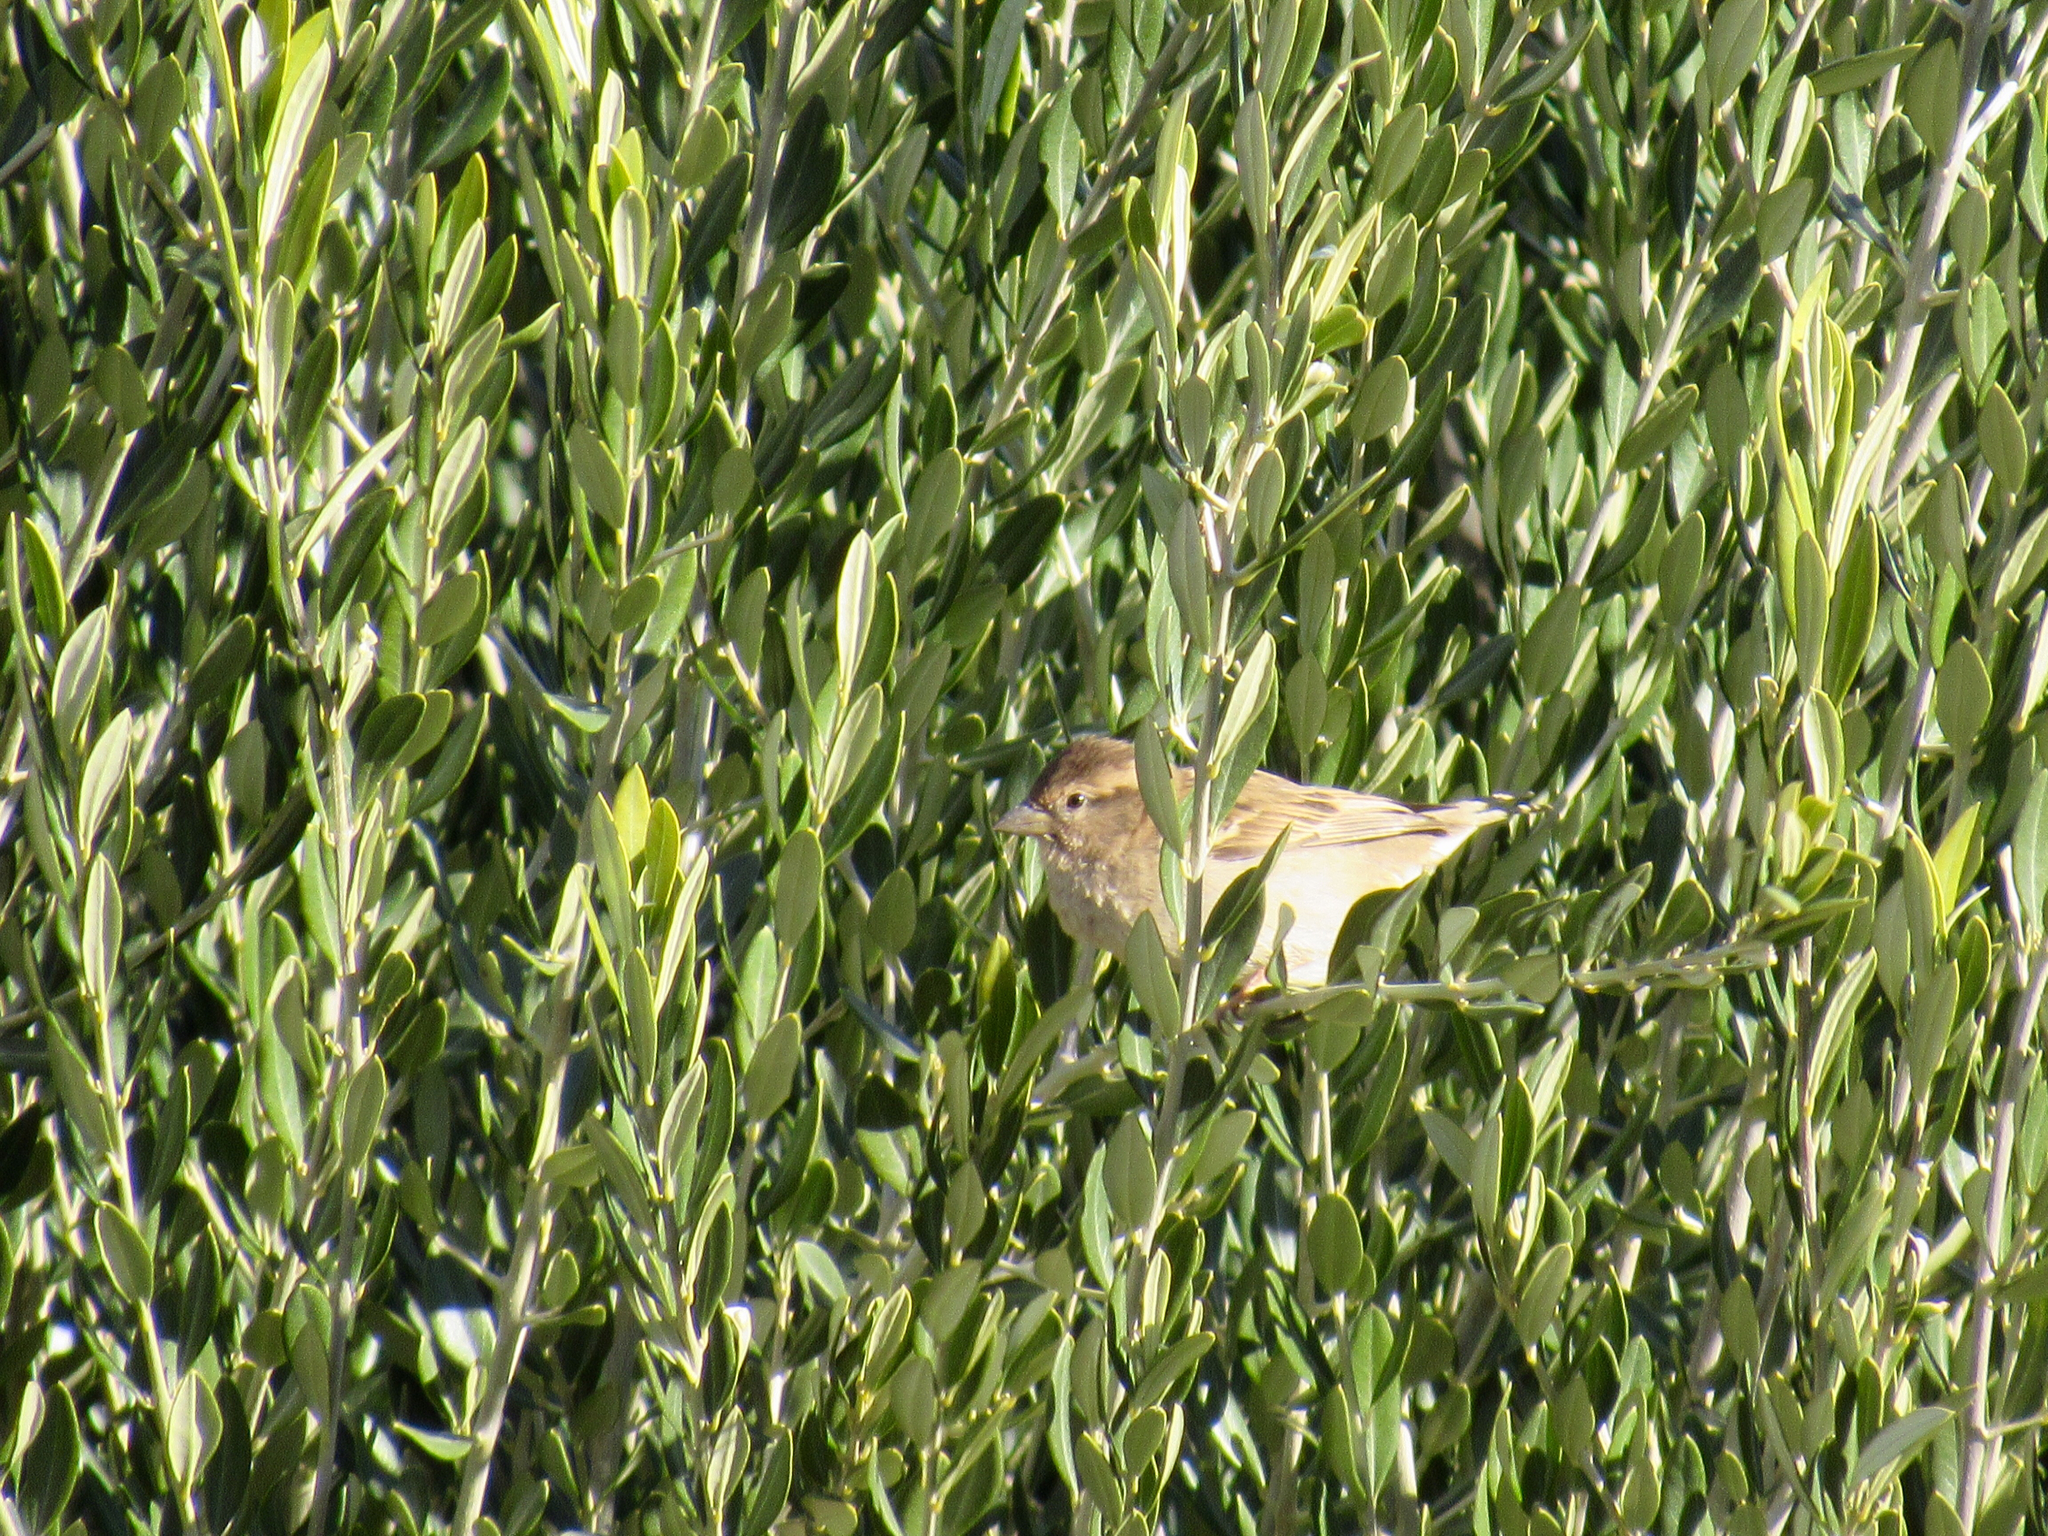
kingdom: Animalia
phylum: Chordata
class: Aves
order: Passeriformes
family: Passeridae
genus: Passer
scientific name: Passer domesticus
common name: House sparrow
